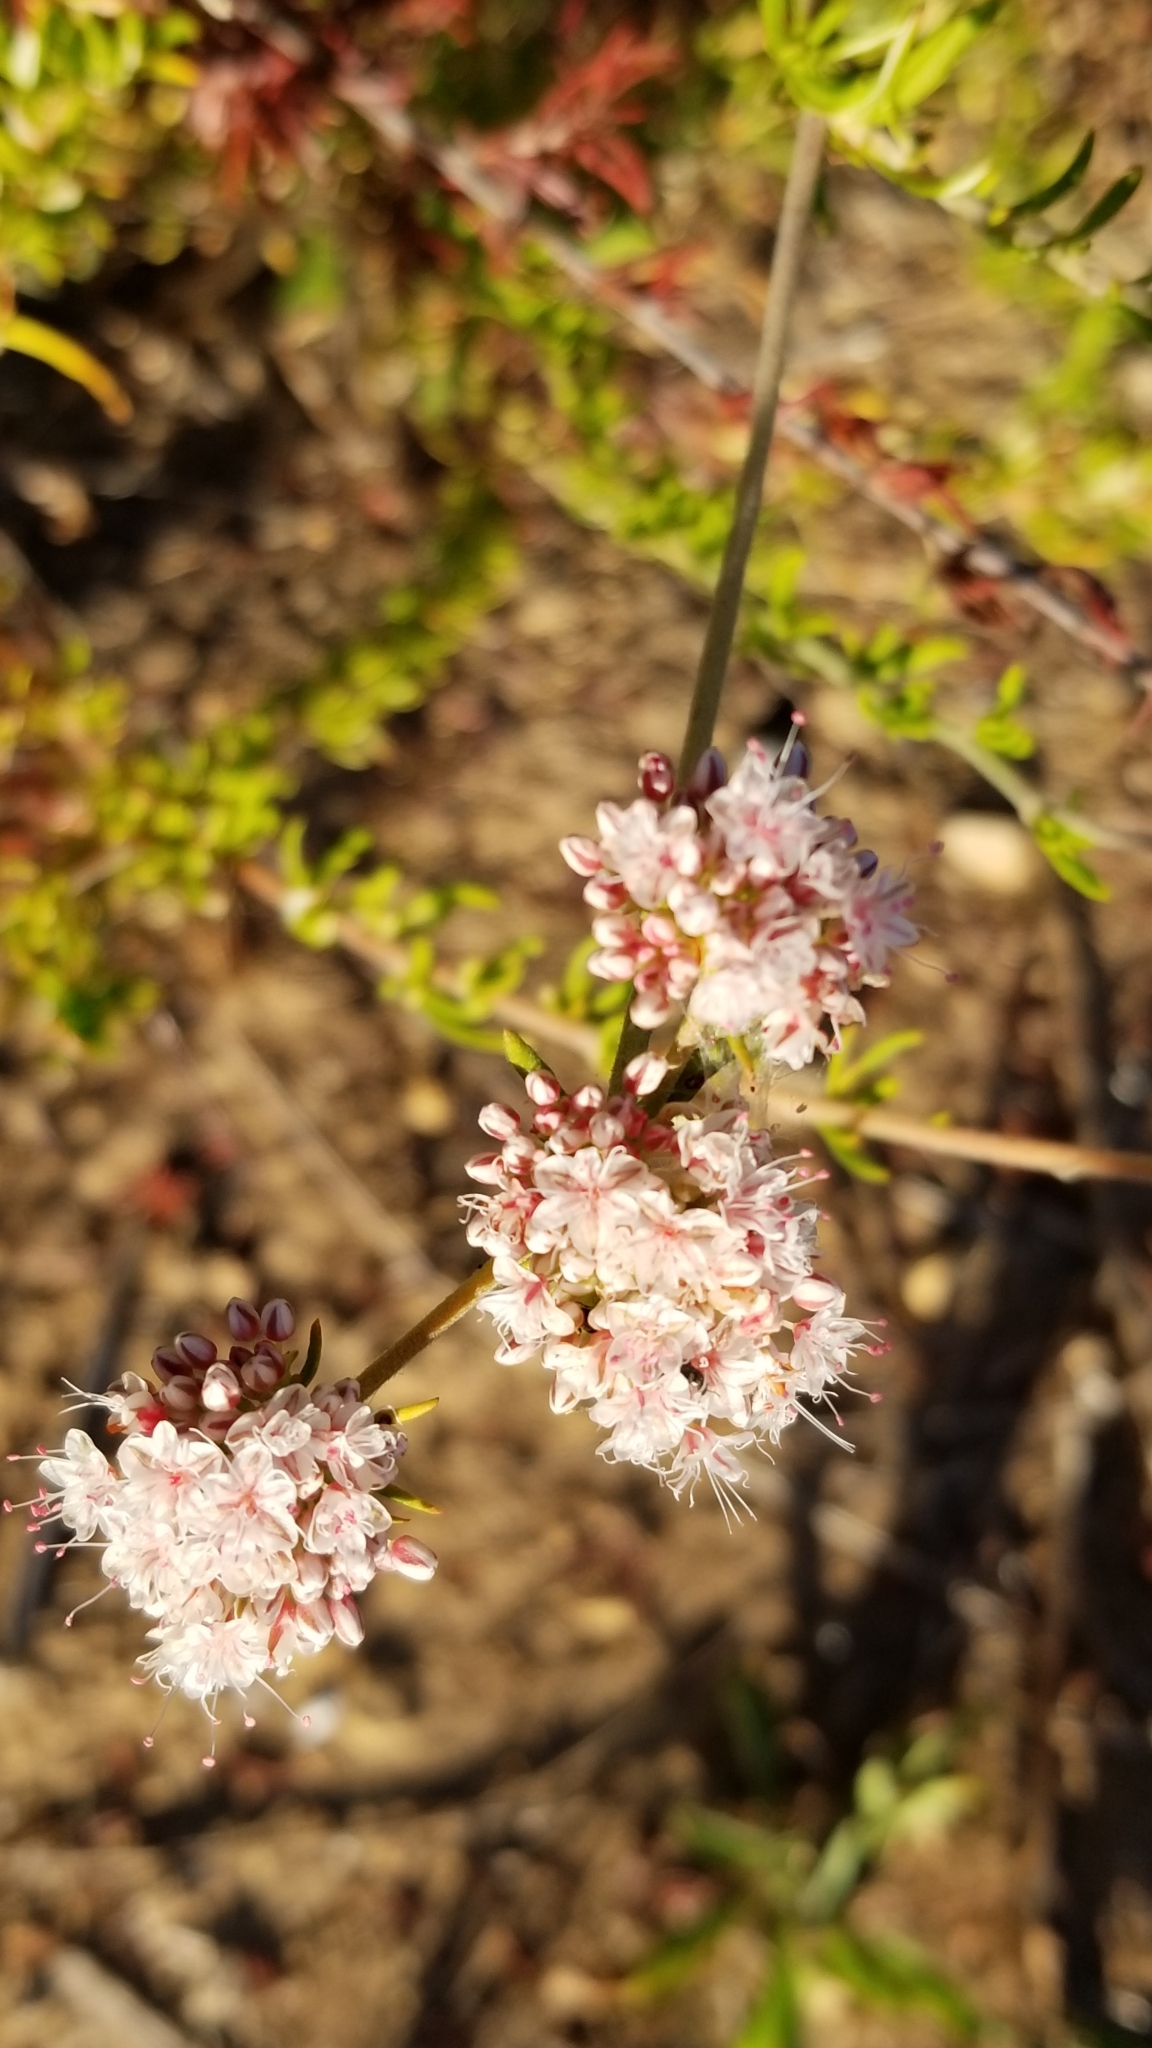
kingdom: Plantae
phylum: Tracheophyta
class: Magnoliopsida
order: Caryophyllales
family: Polygonaceae
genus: Eriogonum
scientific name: Eriogonum fasciculatum
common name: California wild buckwheat
